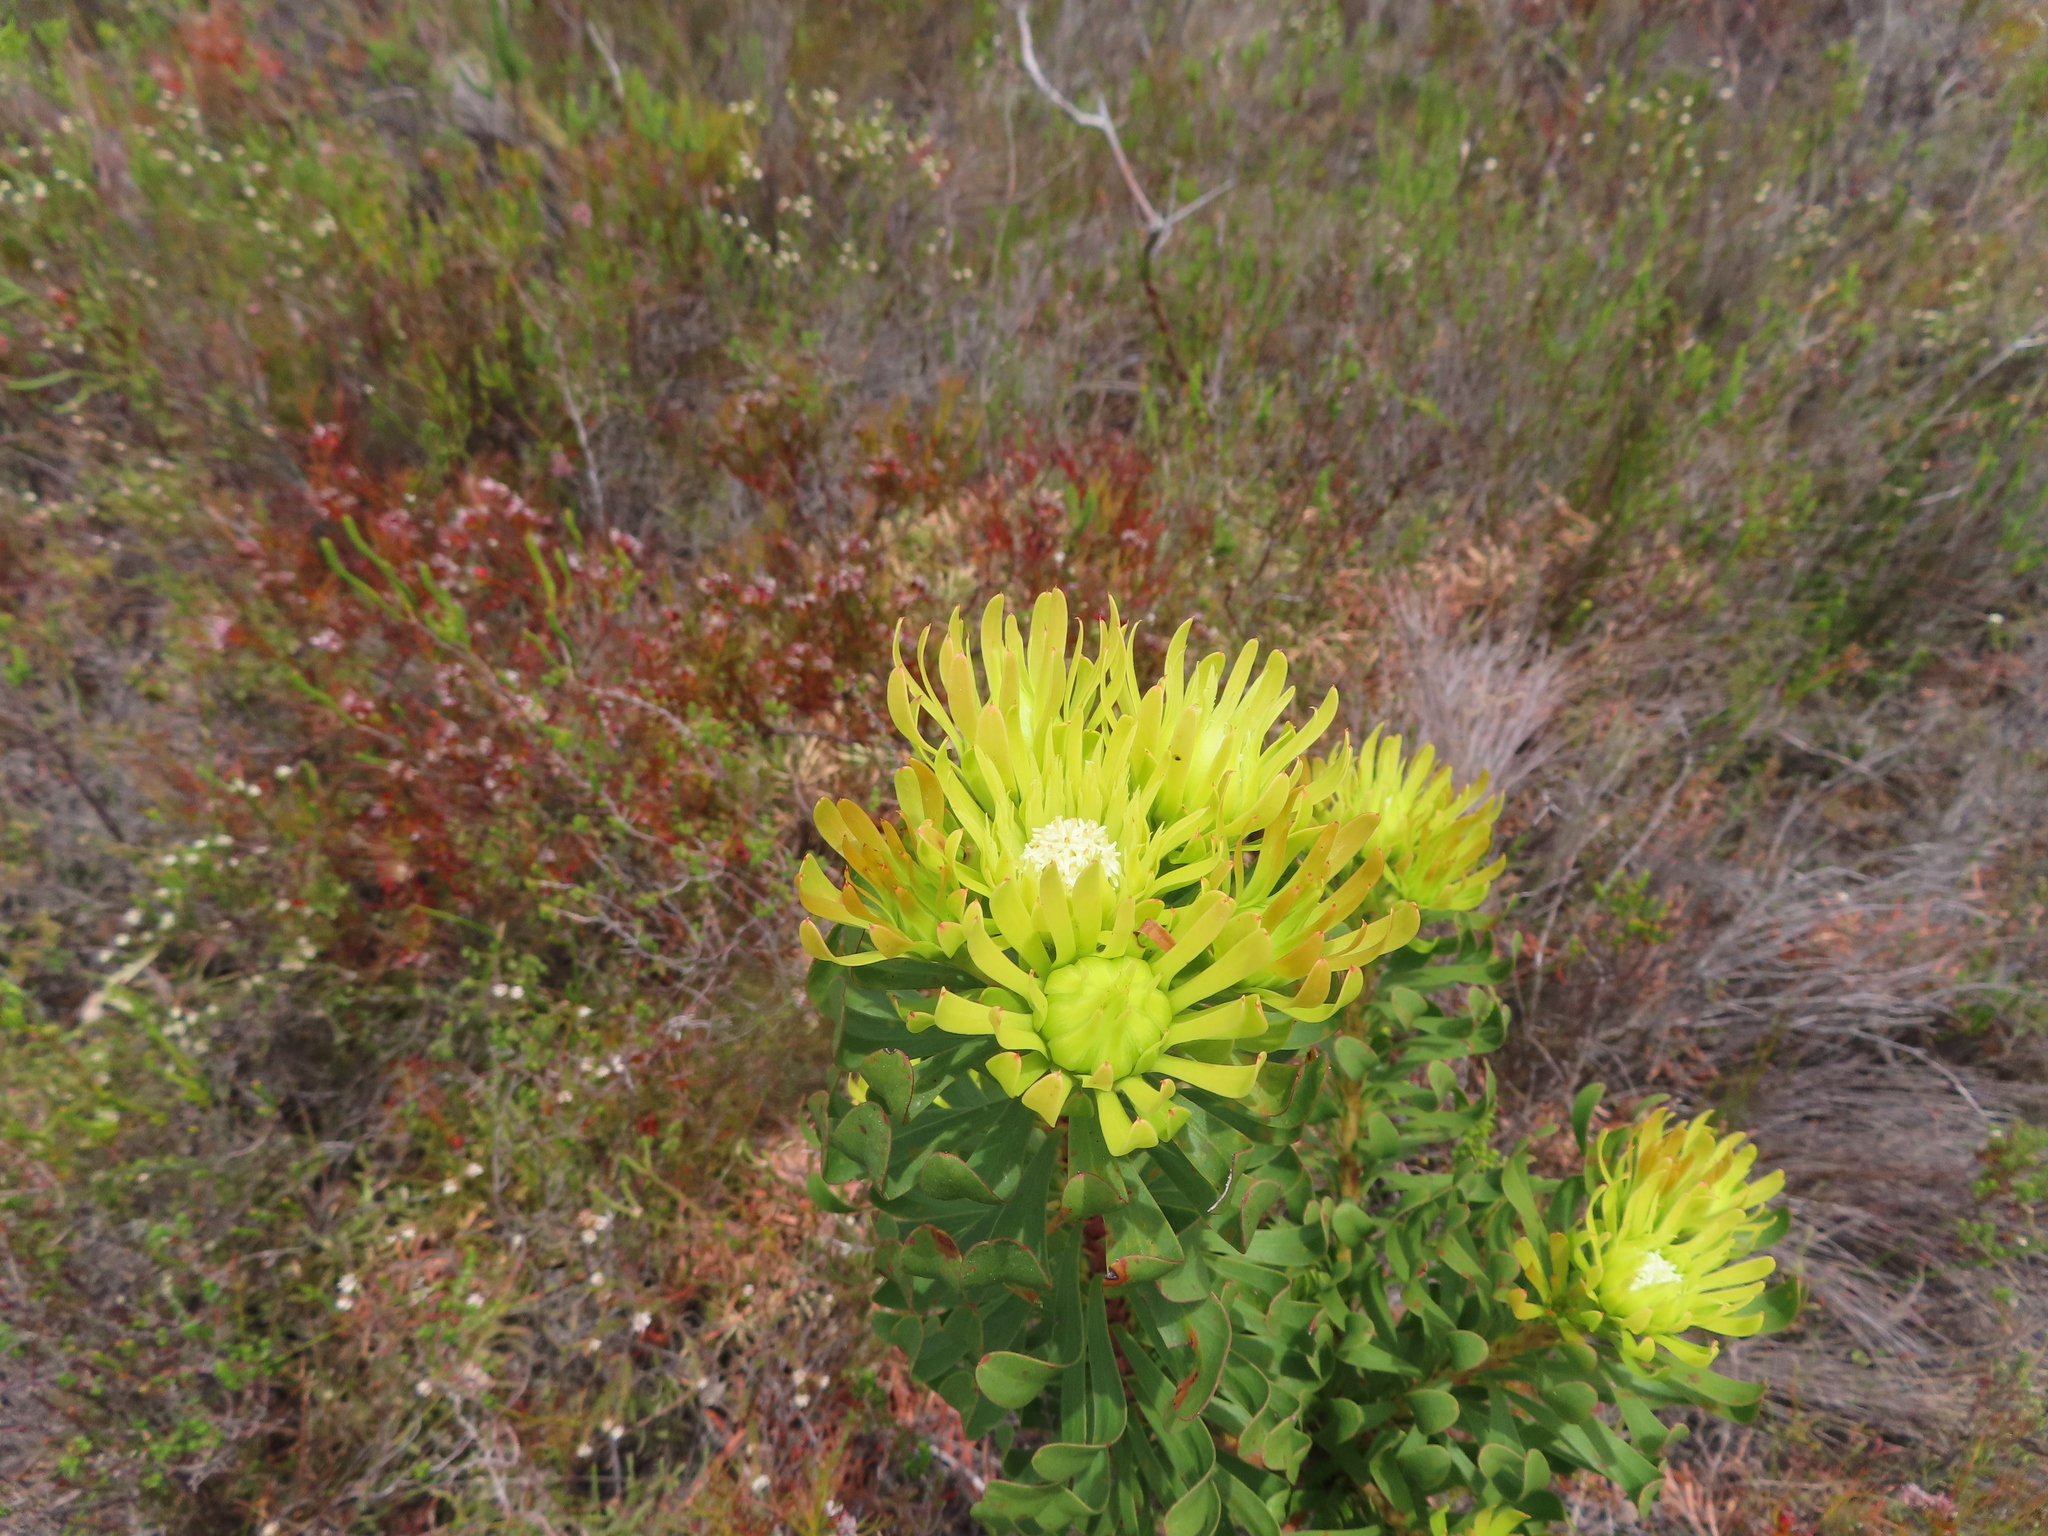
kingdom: Plantae
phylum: Tracheophyta
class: Magnoliopsida
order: Proteales
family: Proteaceae
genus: Aulax
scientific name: Aulax umbellata
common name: Broad-leaf featherbush
